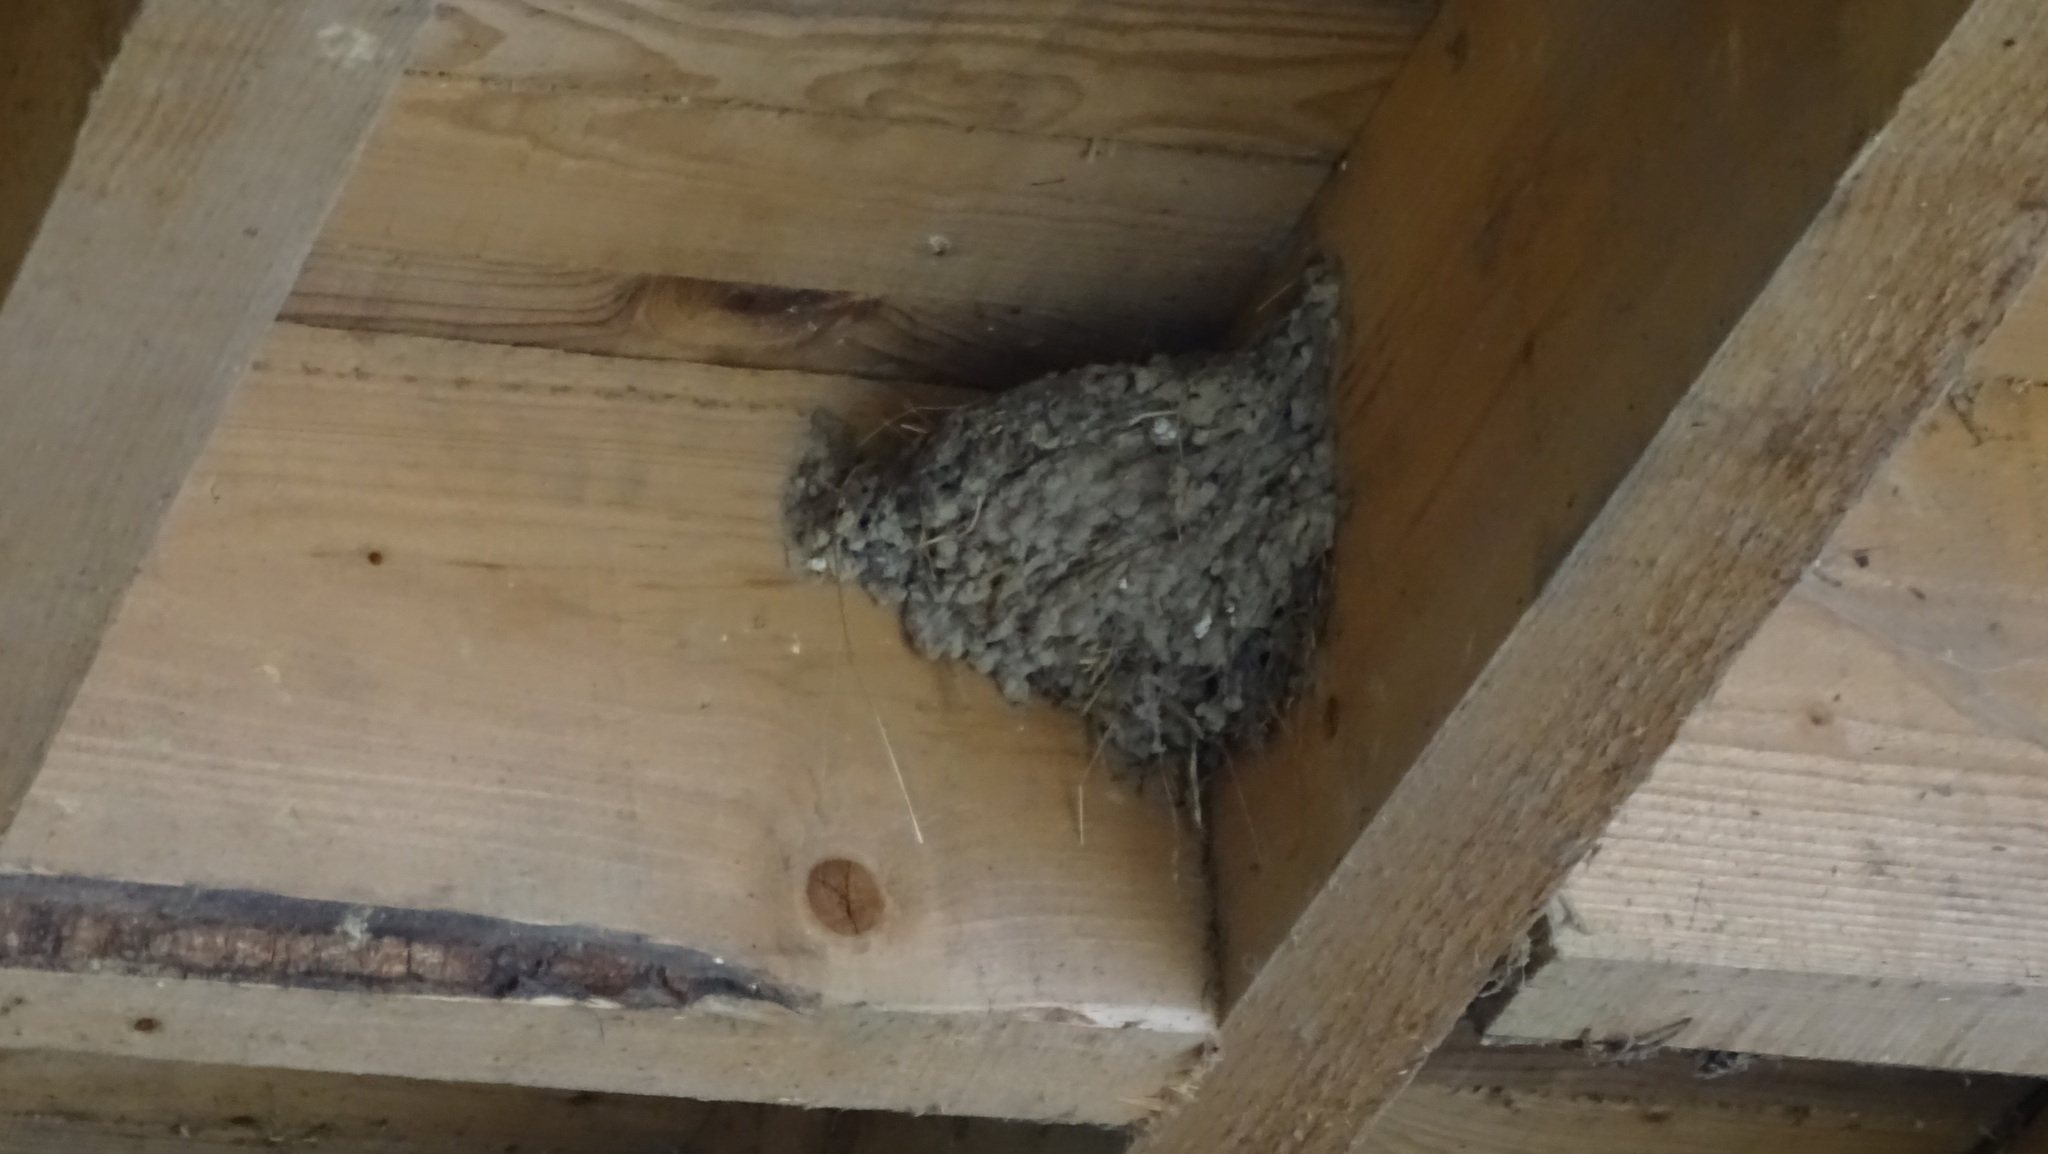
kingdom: Animalia
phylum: Chordata
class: Aves
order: Passeriformes
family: Hirundinidae
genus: Hirundo
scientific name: Hirundo rustica
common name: Barn swallow
